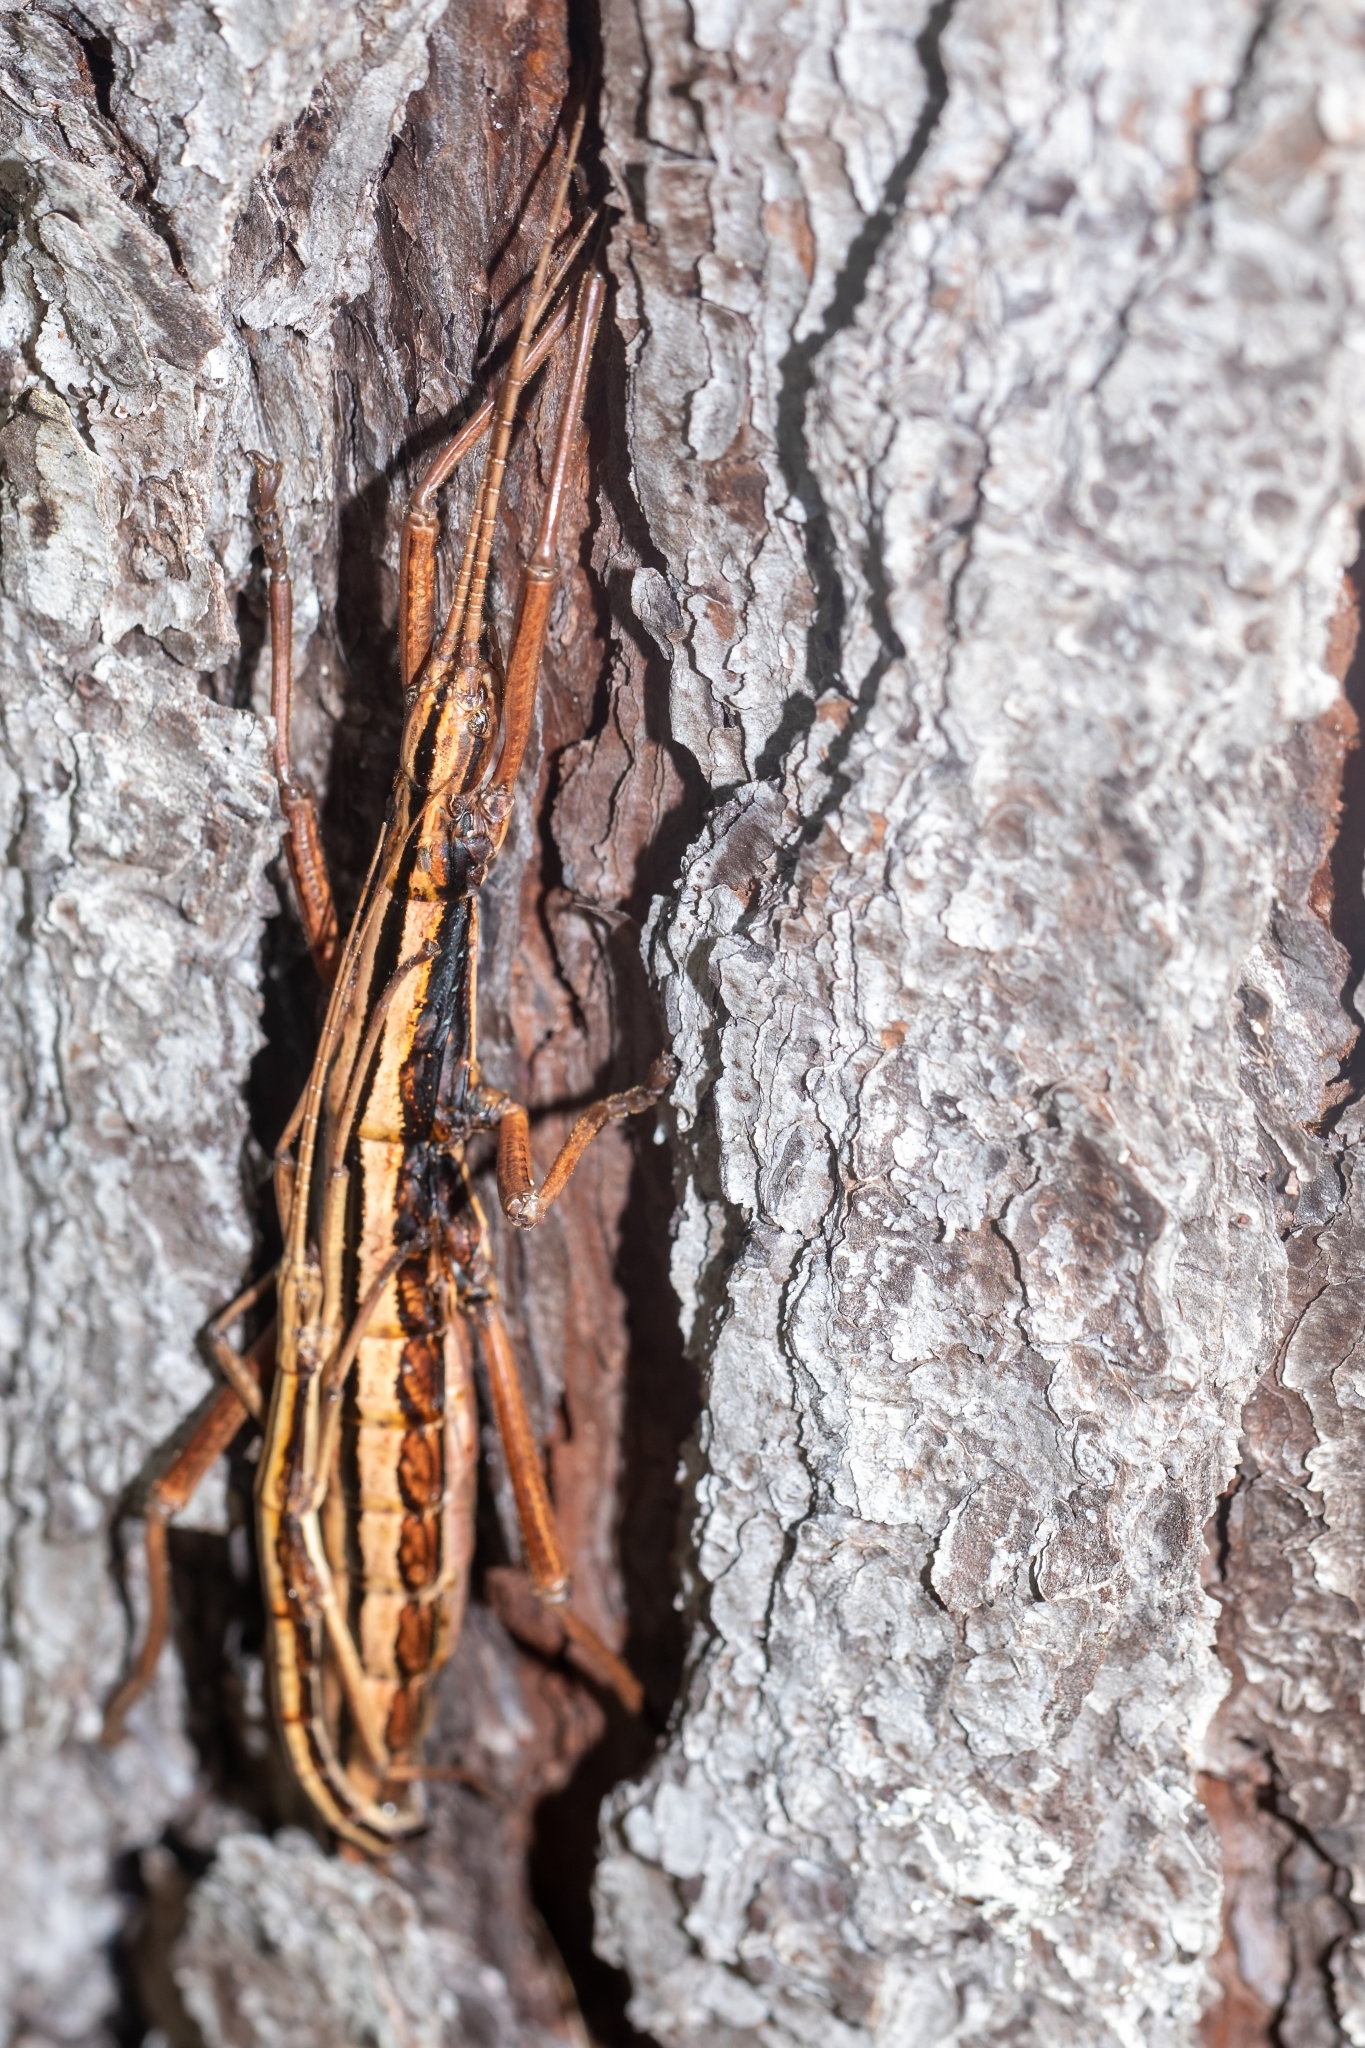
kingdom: Animalia
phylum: Arthropoda
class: Insecta
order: Phasmida
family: Pseudophasmatidae
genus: Anisomorpha
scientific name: Anisomorpha buprestoides
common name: Florida stick insect
